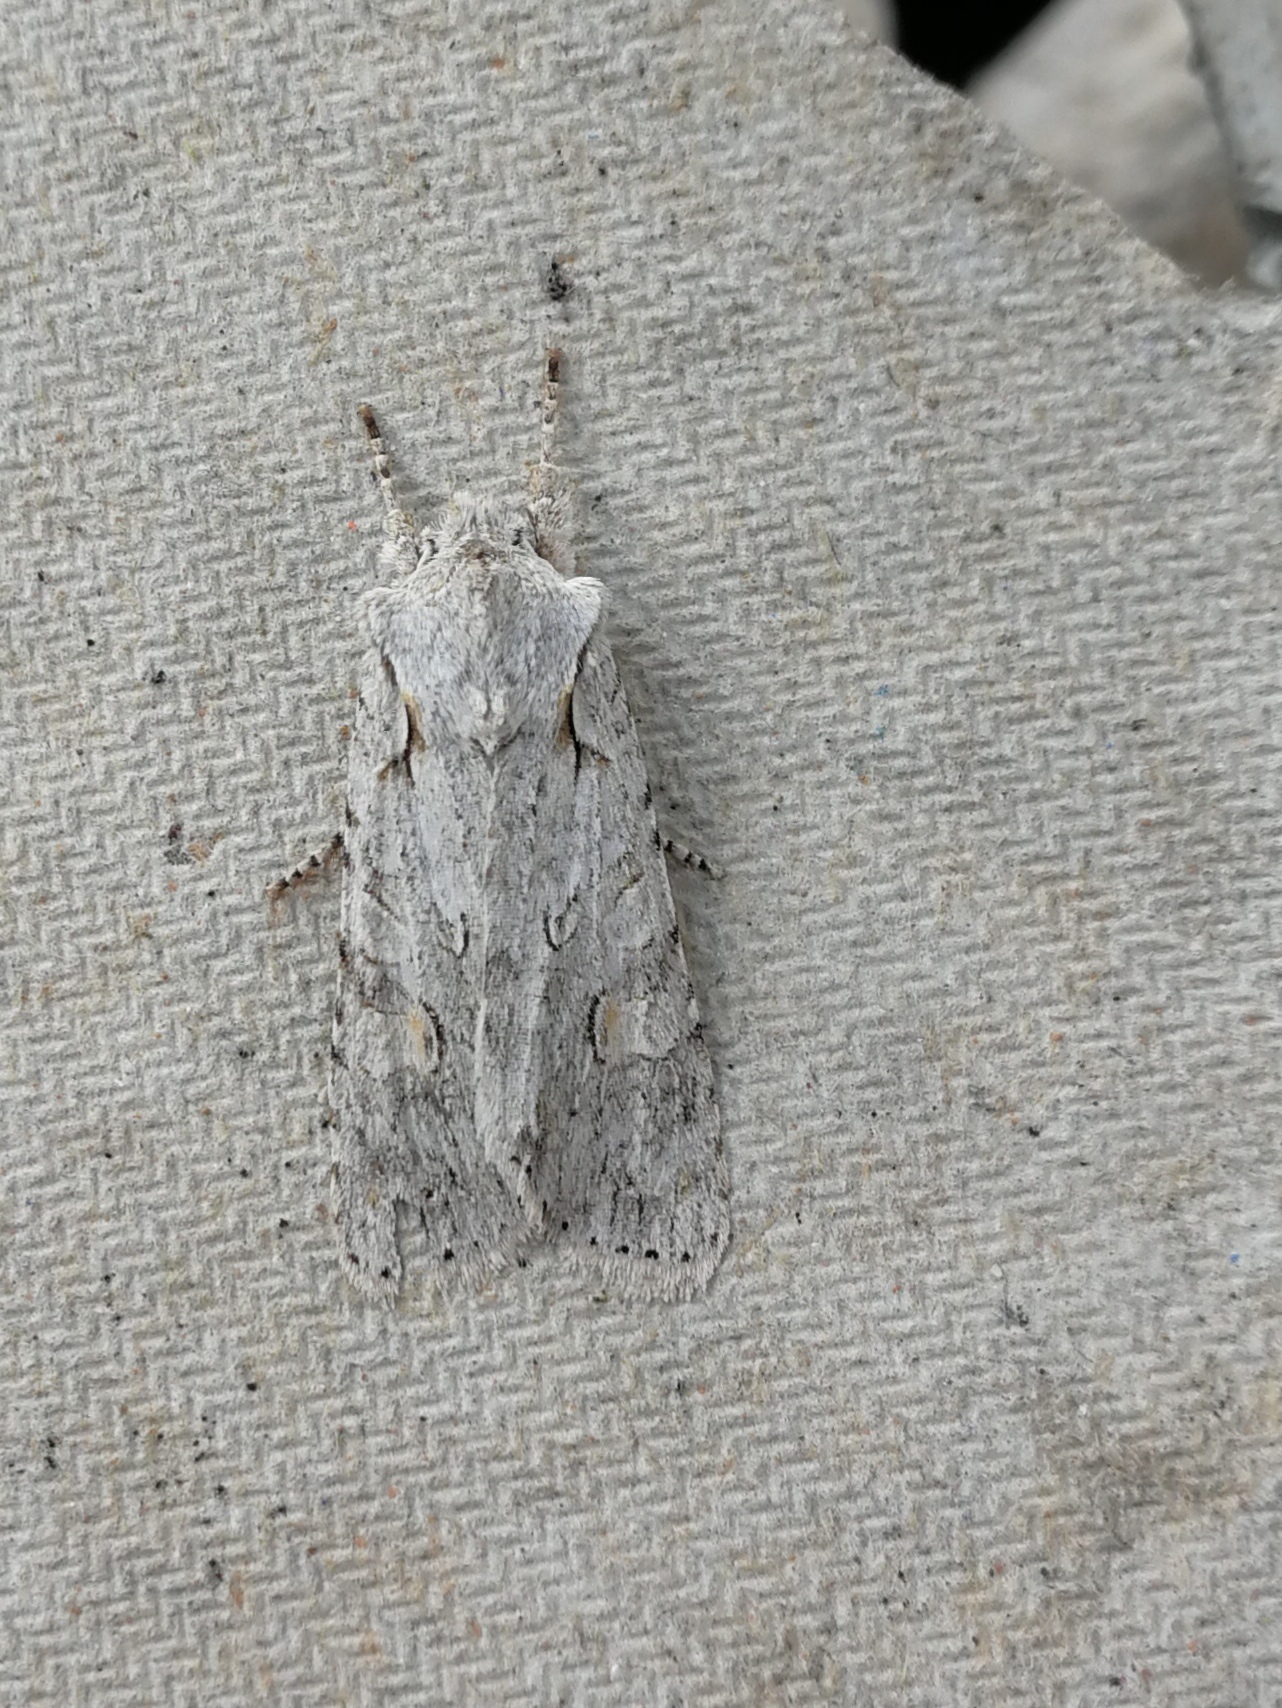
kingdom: Animalia
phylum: Arthropoda
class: Insecta
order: Lepidoptera
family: Noctuidae
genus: Lithophane
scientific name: Lithophane ornitopus
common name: Grey shoulder-knot
